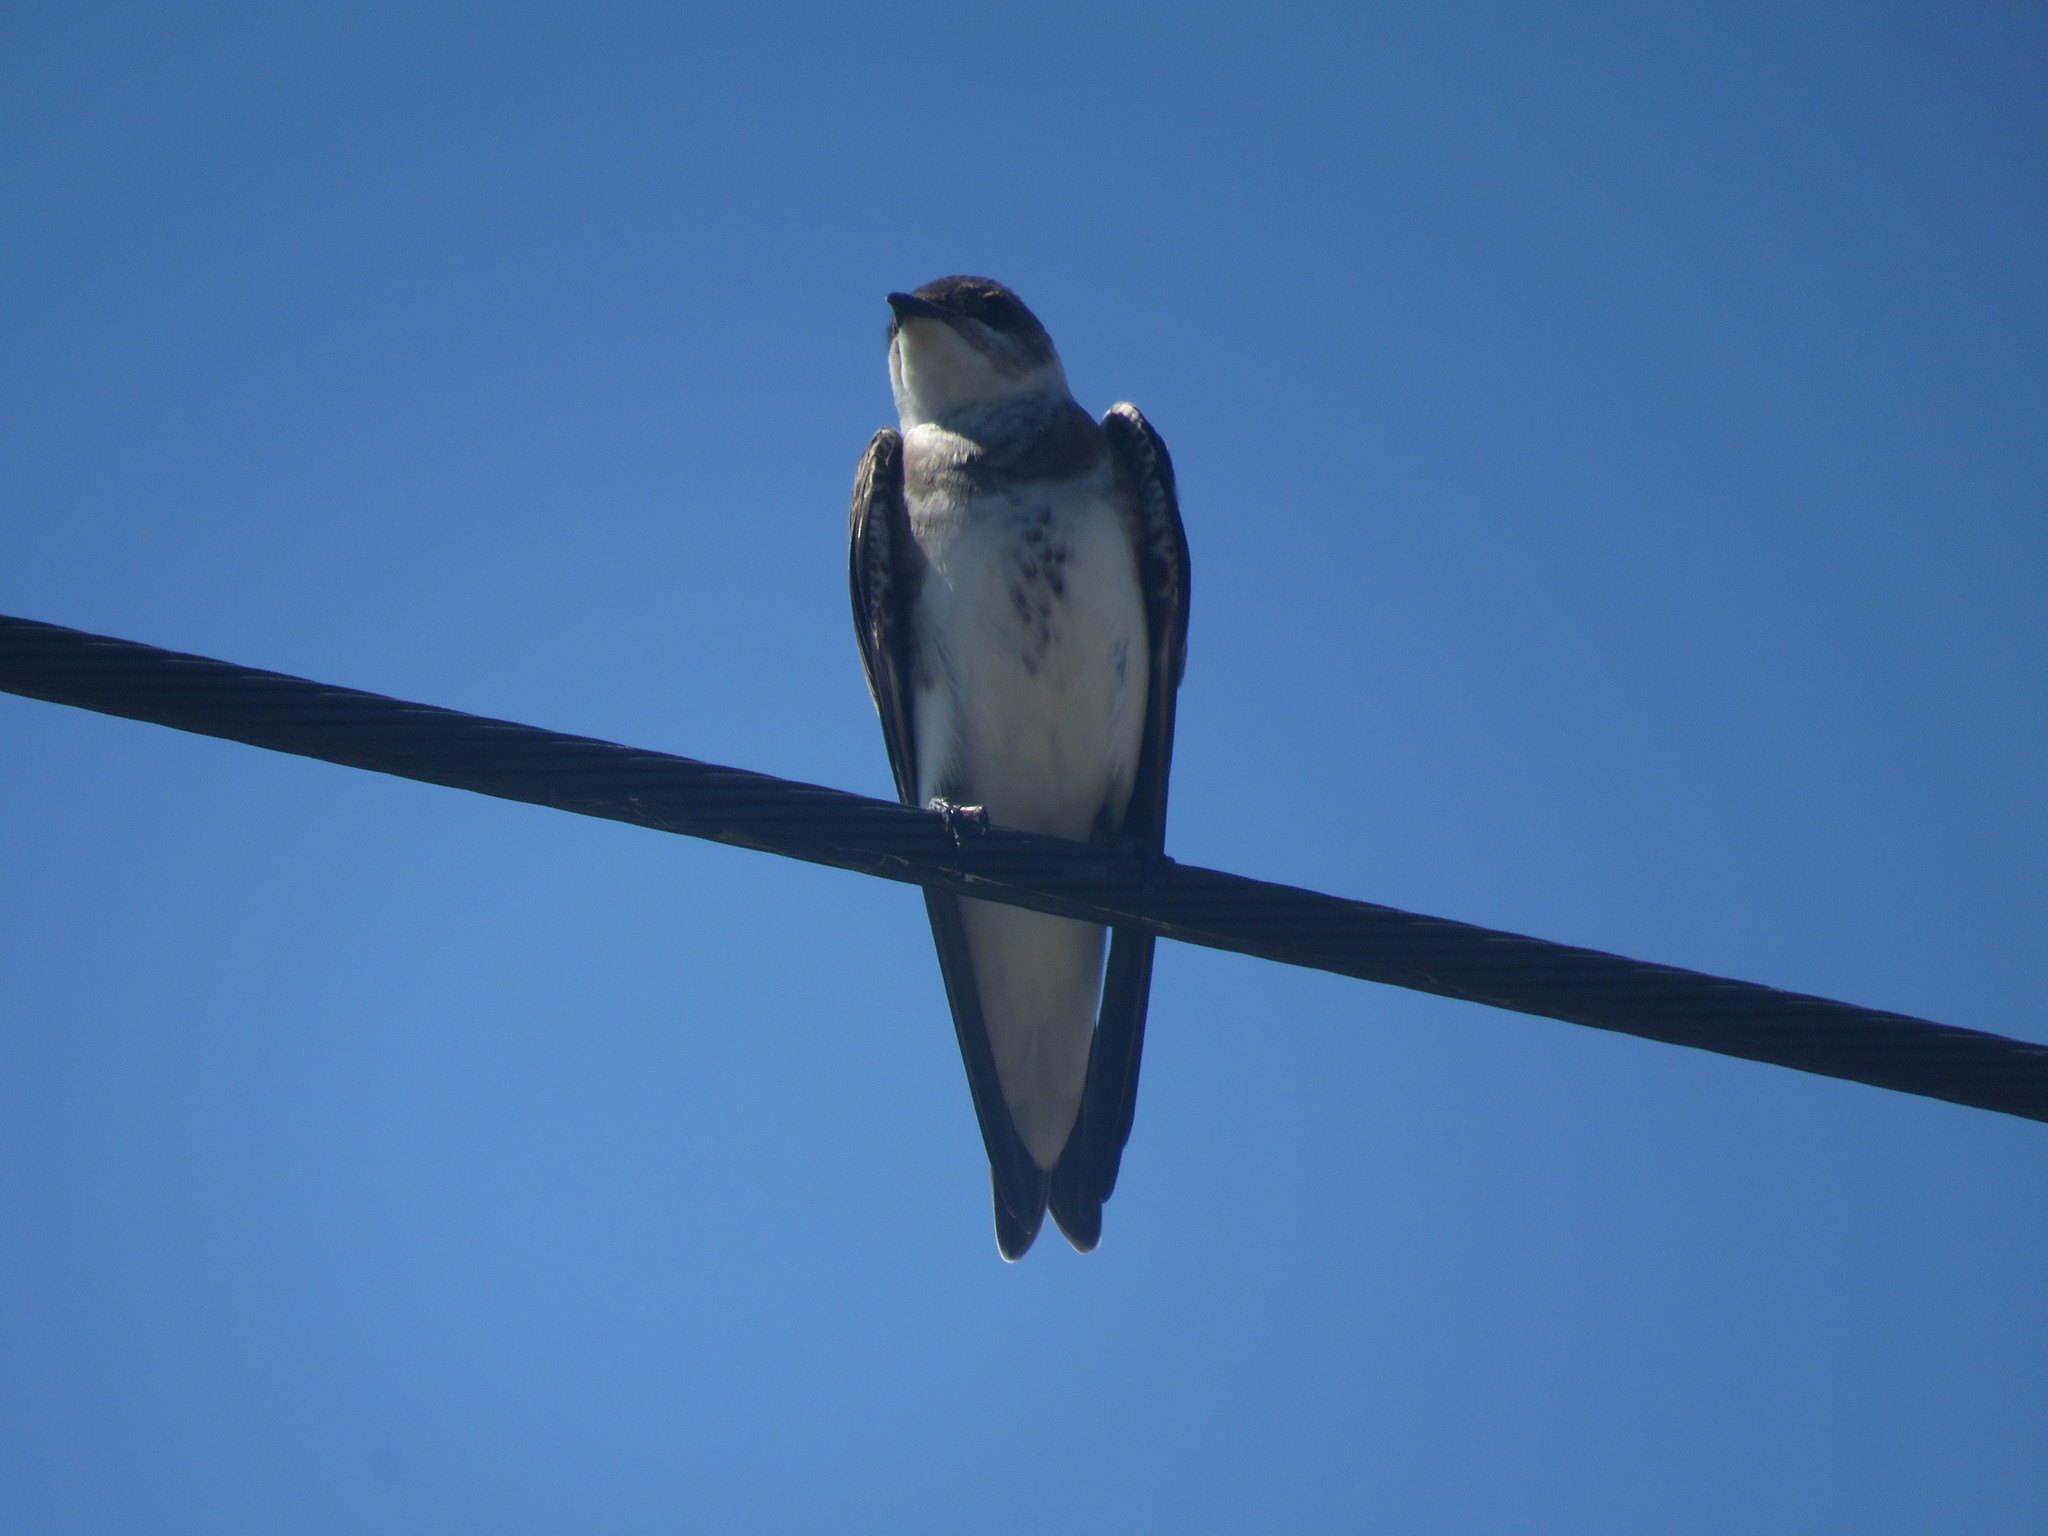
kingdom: Animalia
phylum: Chordata
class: Aves
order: Passeriformes
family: Hirundinidae
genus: Progne
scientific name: Progne tapera
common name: Brown-chested martin
